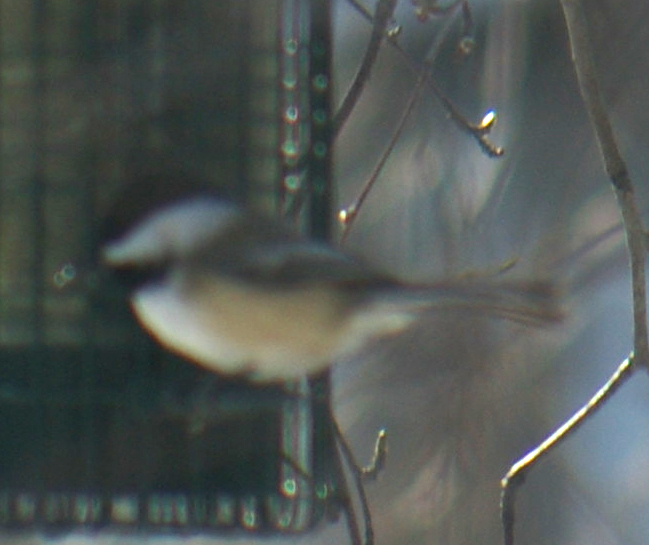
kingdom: Animalia
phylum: Chordata
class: Aves
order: Passeriformes
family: Paridae
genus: Poecile
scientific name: Poecile atricapillus
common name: Black-capped chickadee
